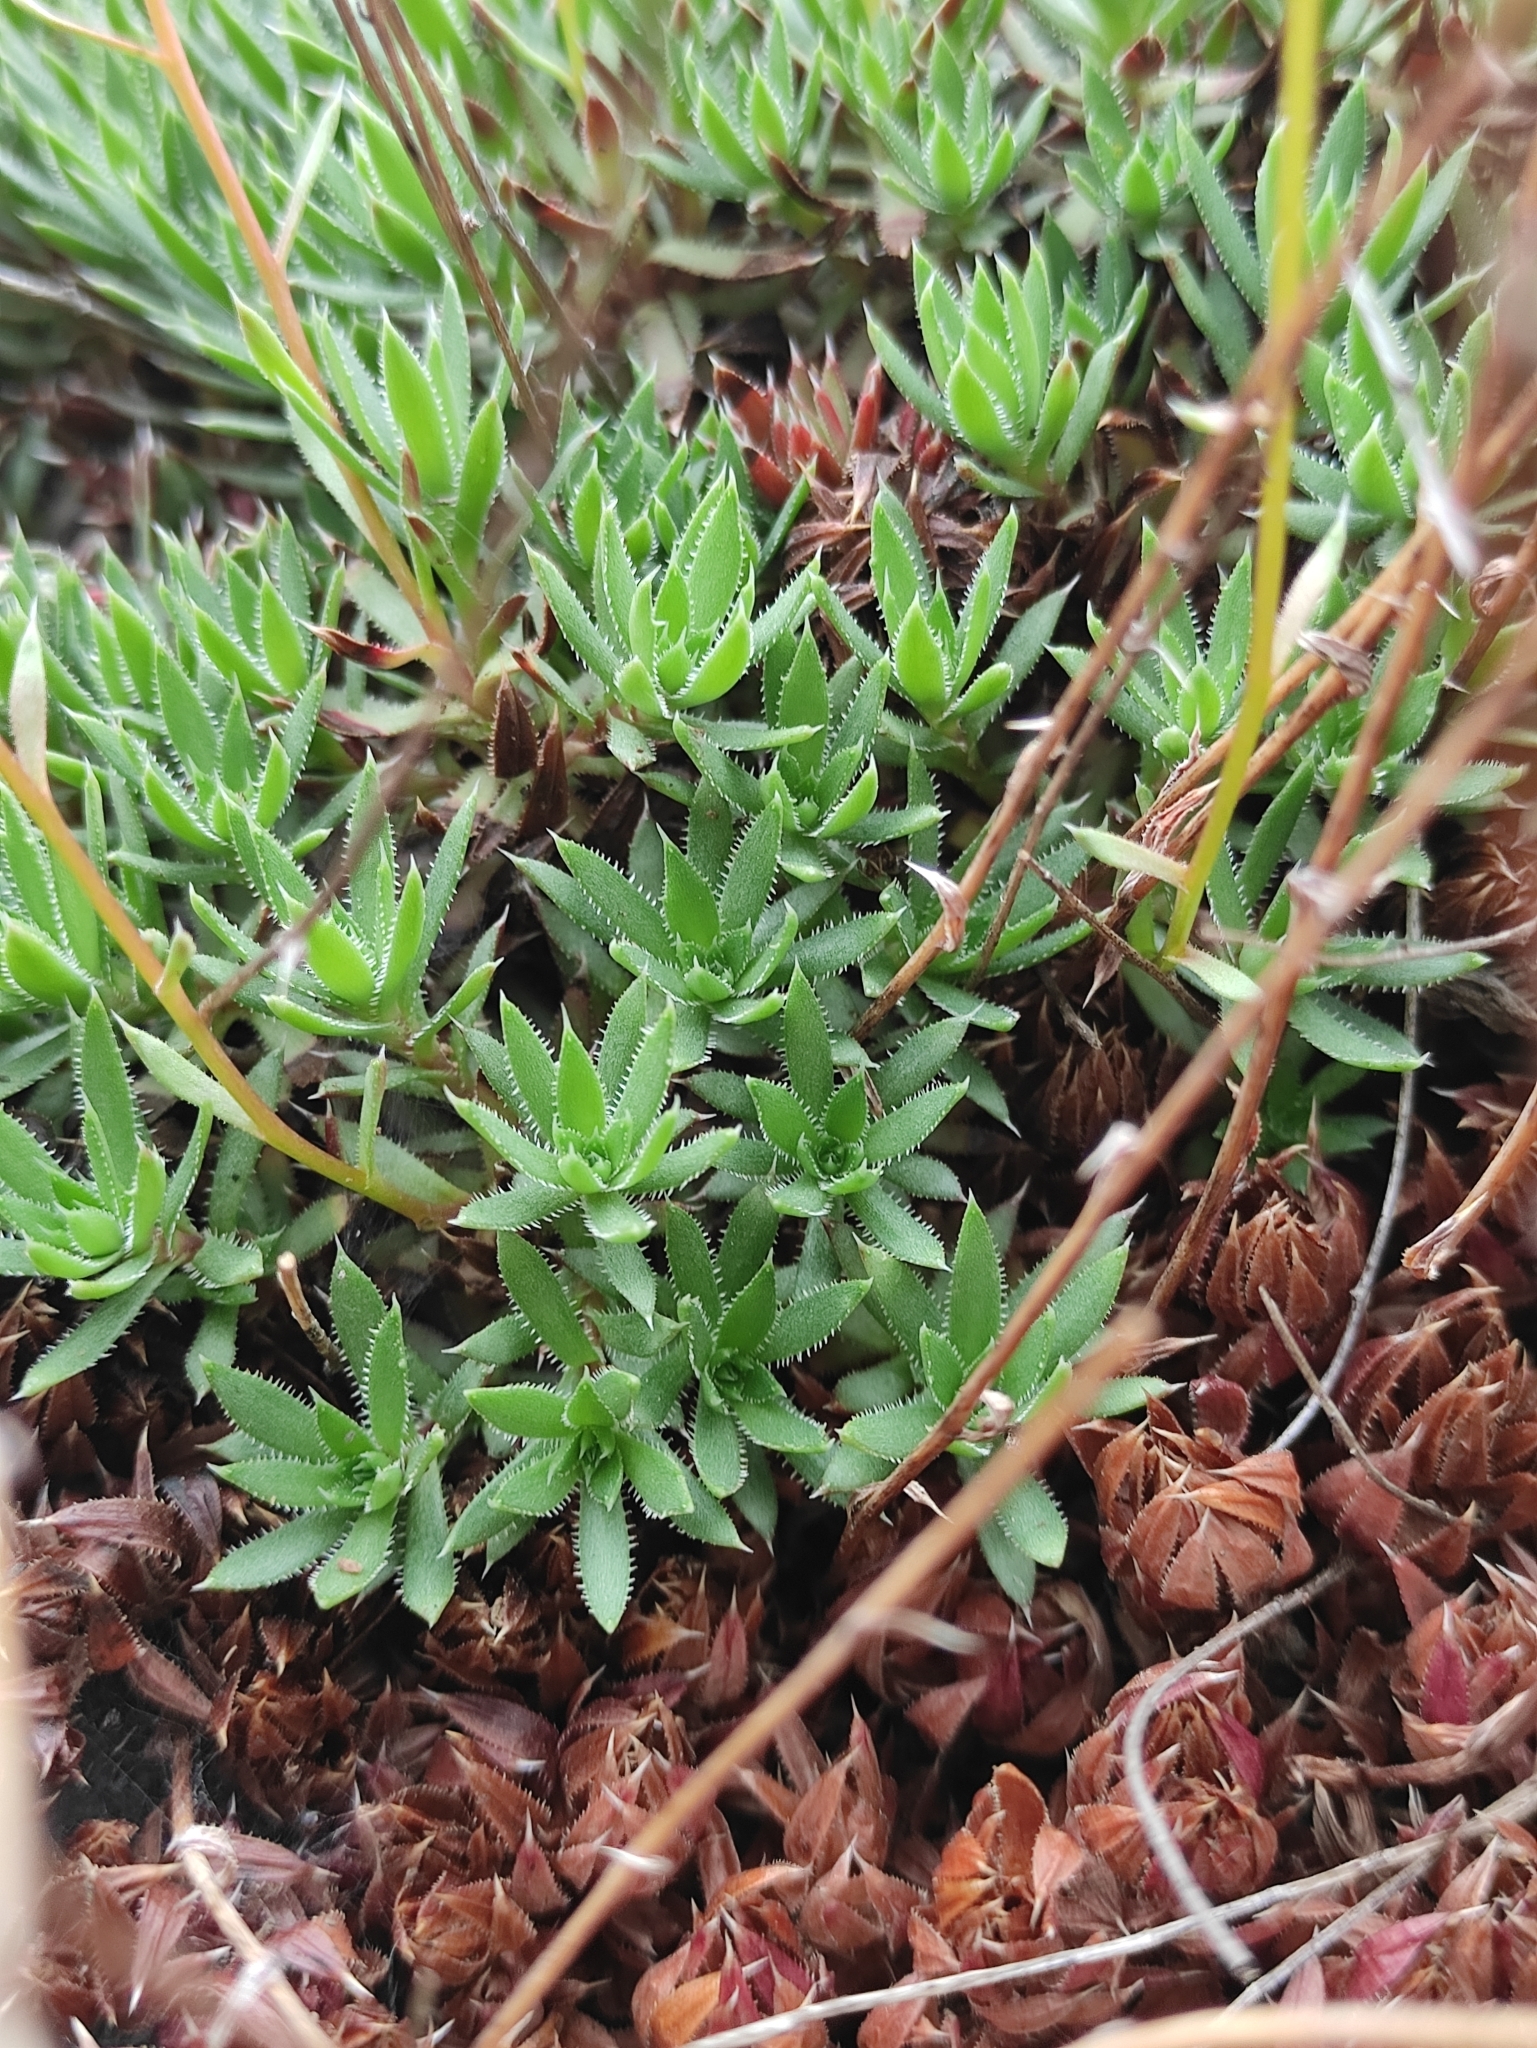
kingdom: Plantae
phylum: Tracheophyta
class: Magnoliopsida
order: Saxifragales
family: Saxifragaceae
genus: Saxifraga
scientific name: Saxifraga
